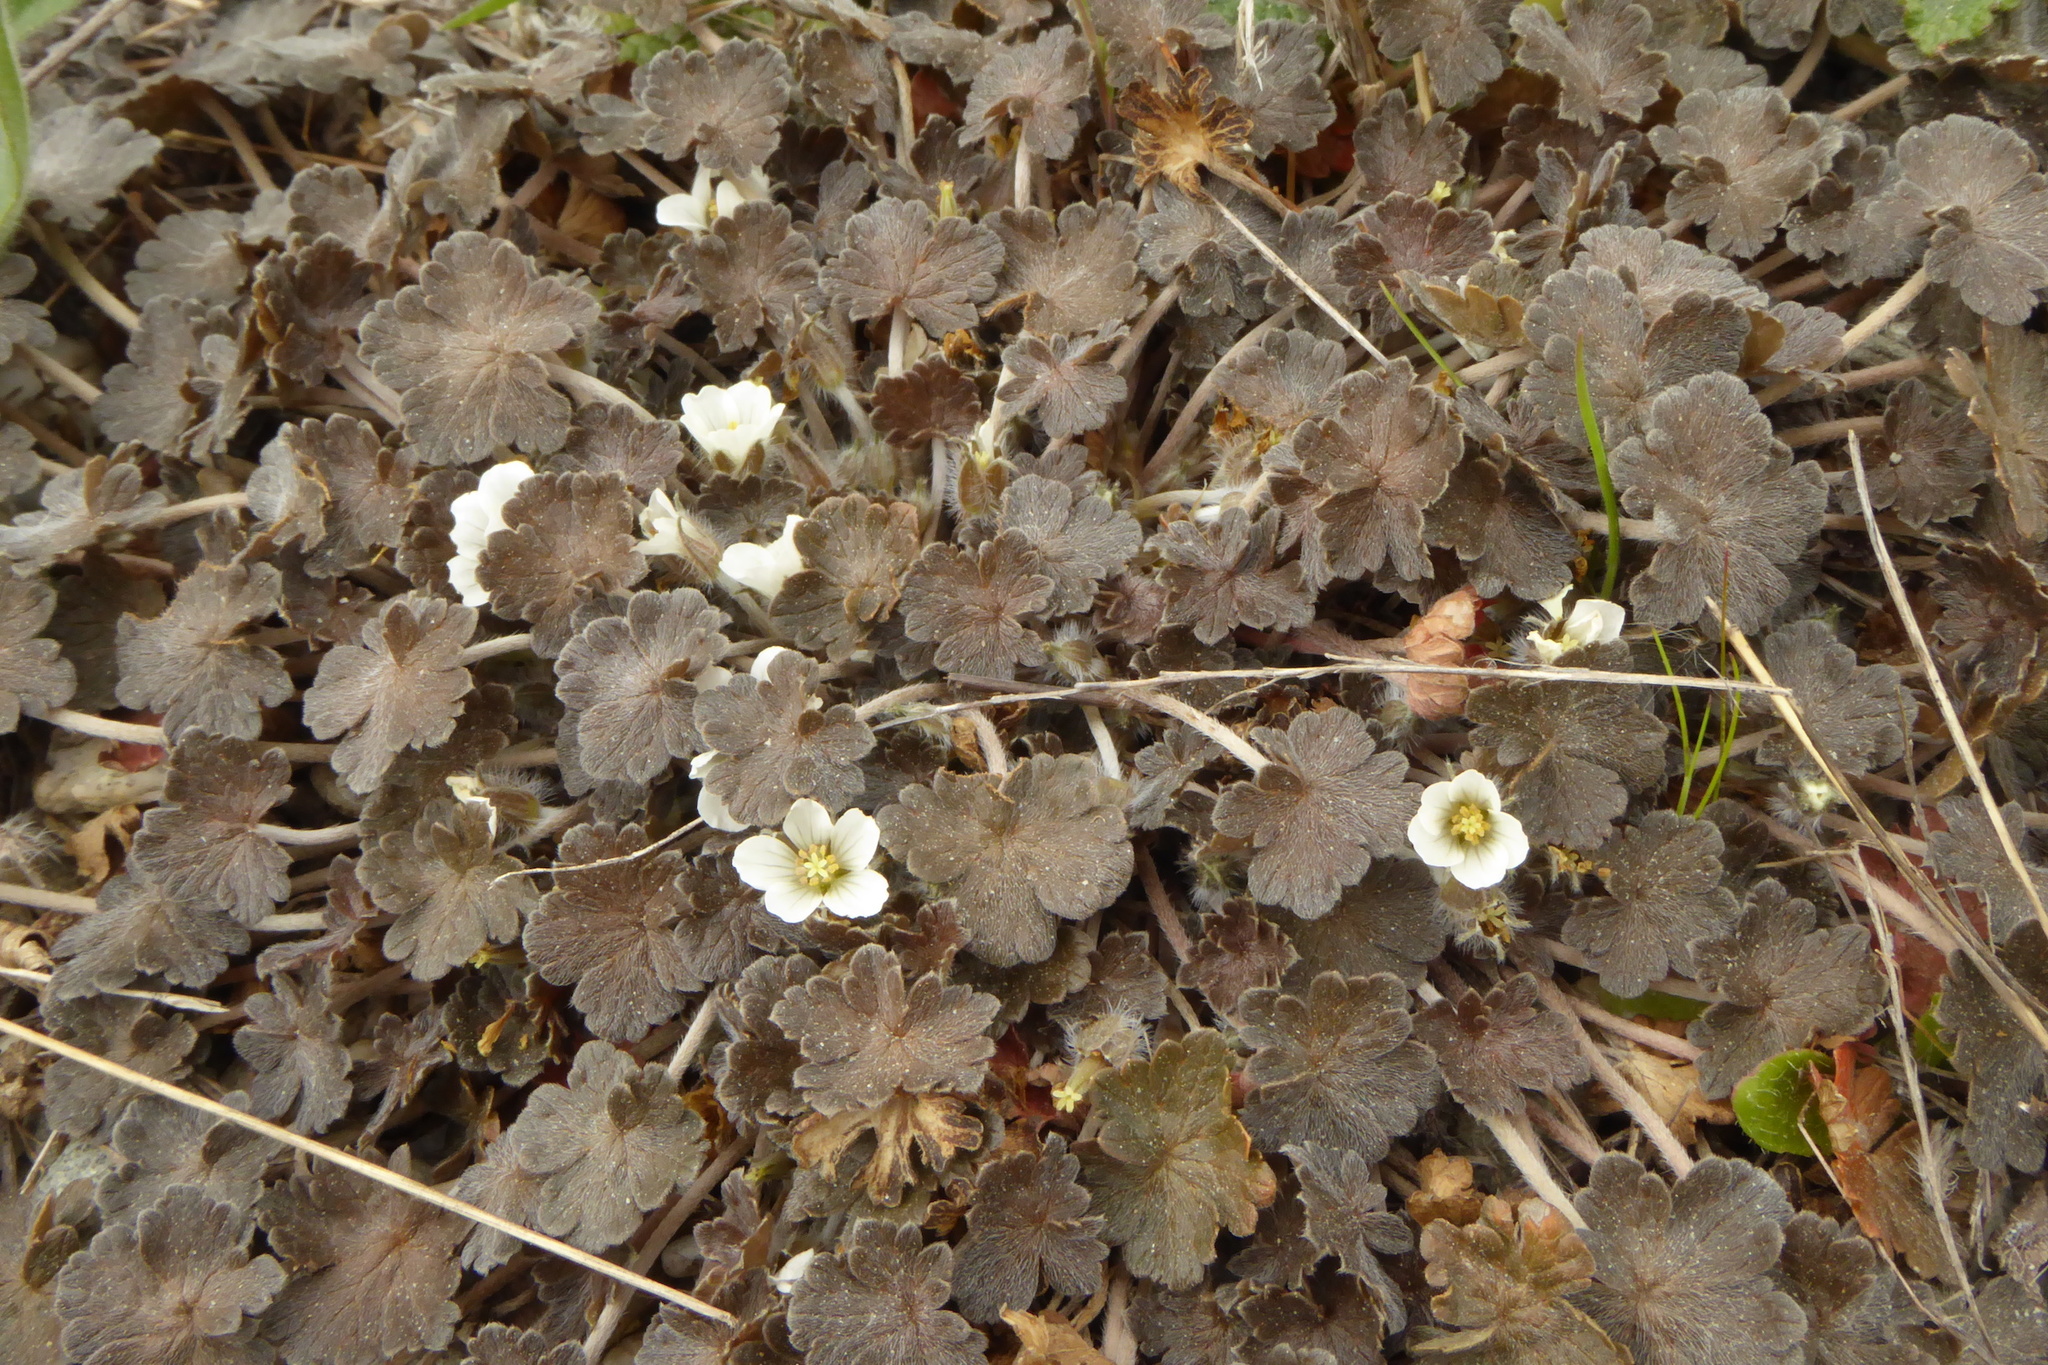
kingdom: Plantae
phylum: Tracheophyta
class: Magnoliopsida
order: Geraniales
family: Geraniaceae
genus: Geranium
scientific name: Geranium brevicaule
